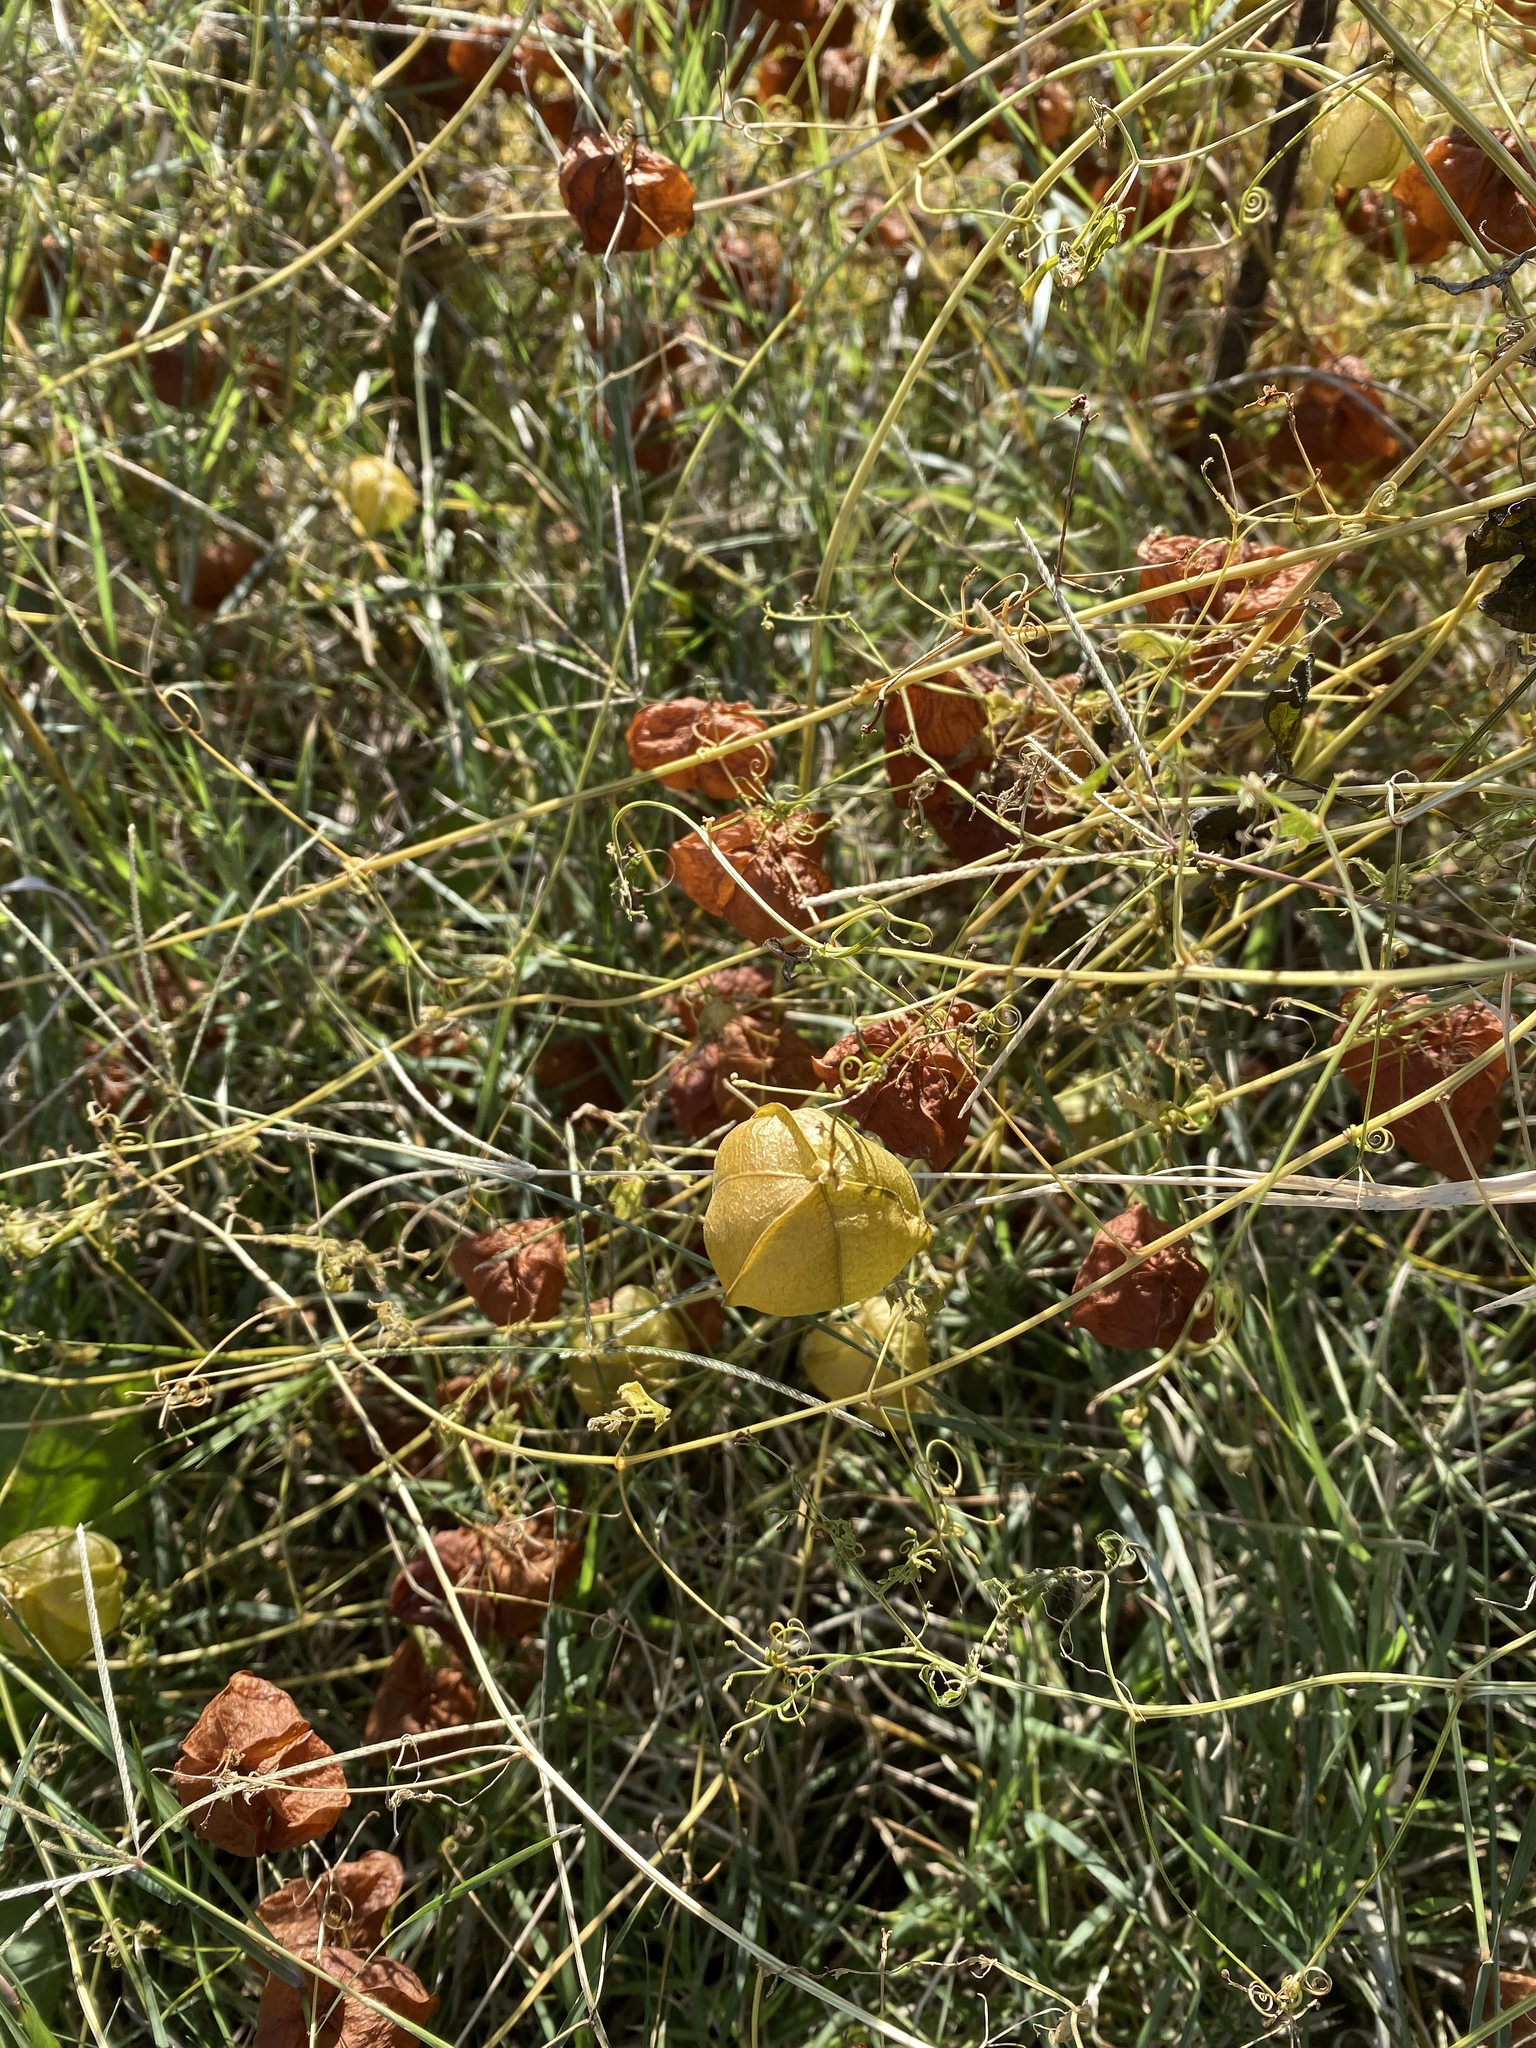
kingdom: Plantae
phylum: Tracheophyta
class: Magnoliopsida
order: Sapindales
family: Sapindaceae
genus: Cardiospermum
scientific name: Cardiospermum halicacabum
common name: Balloon vine
